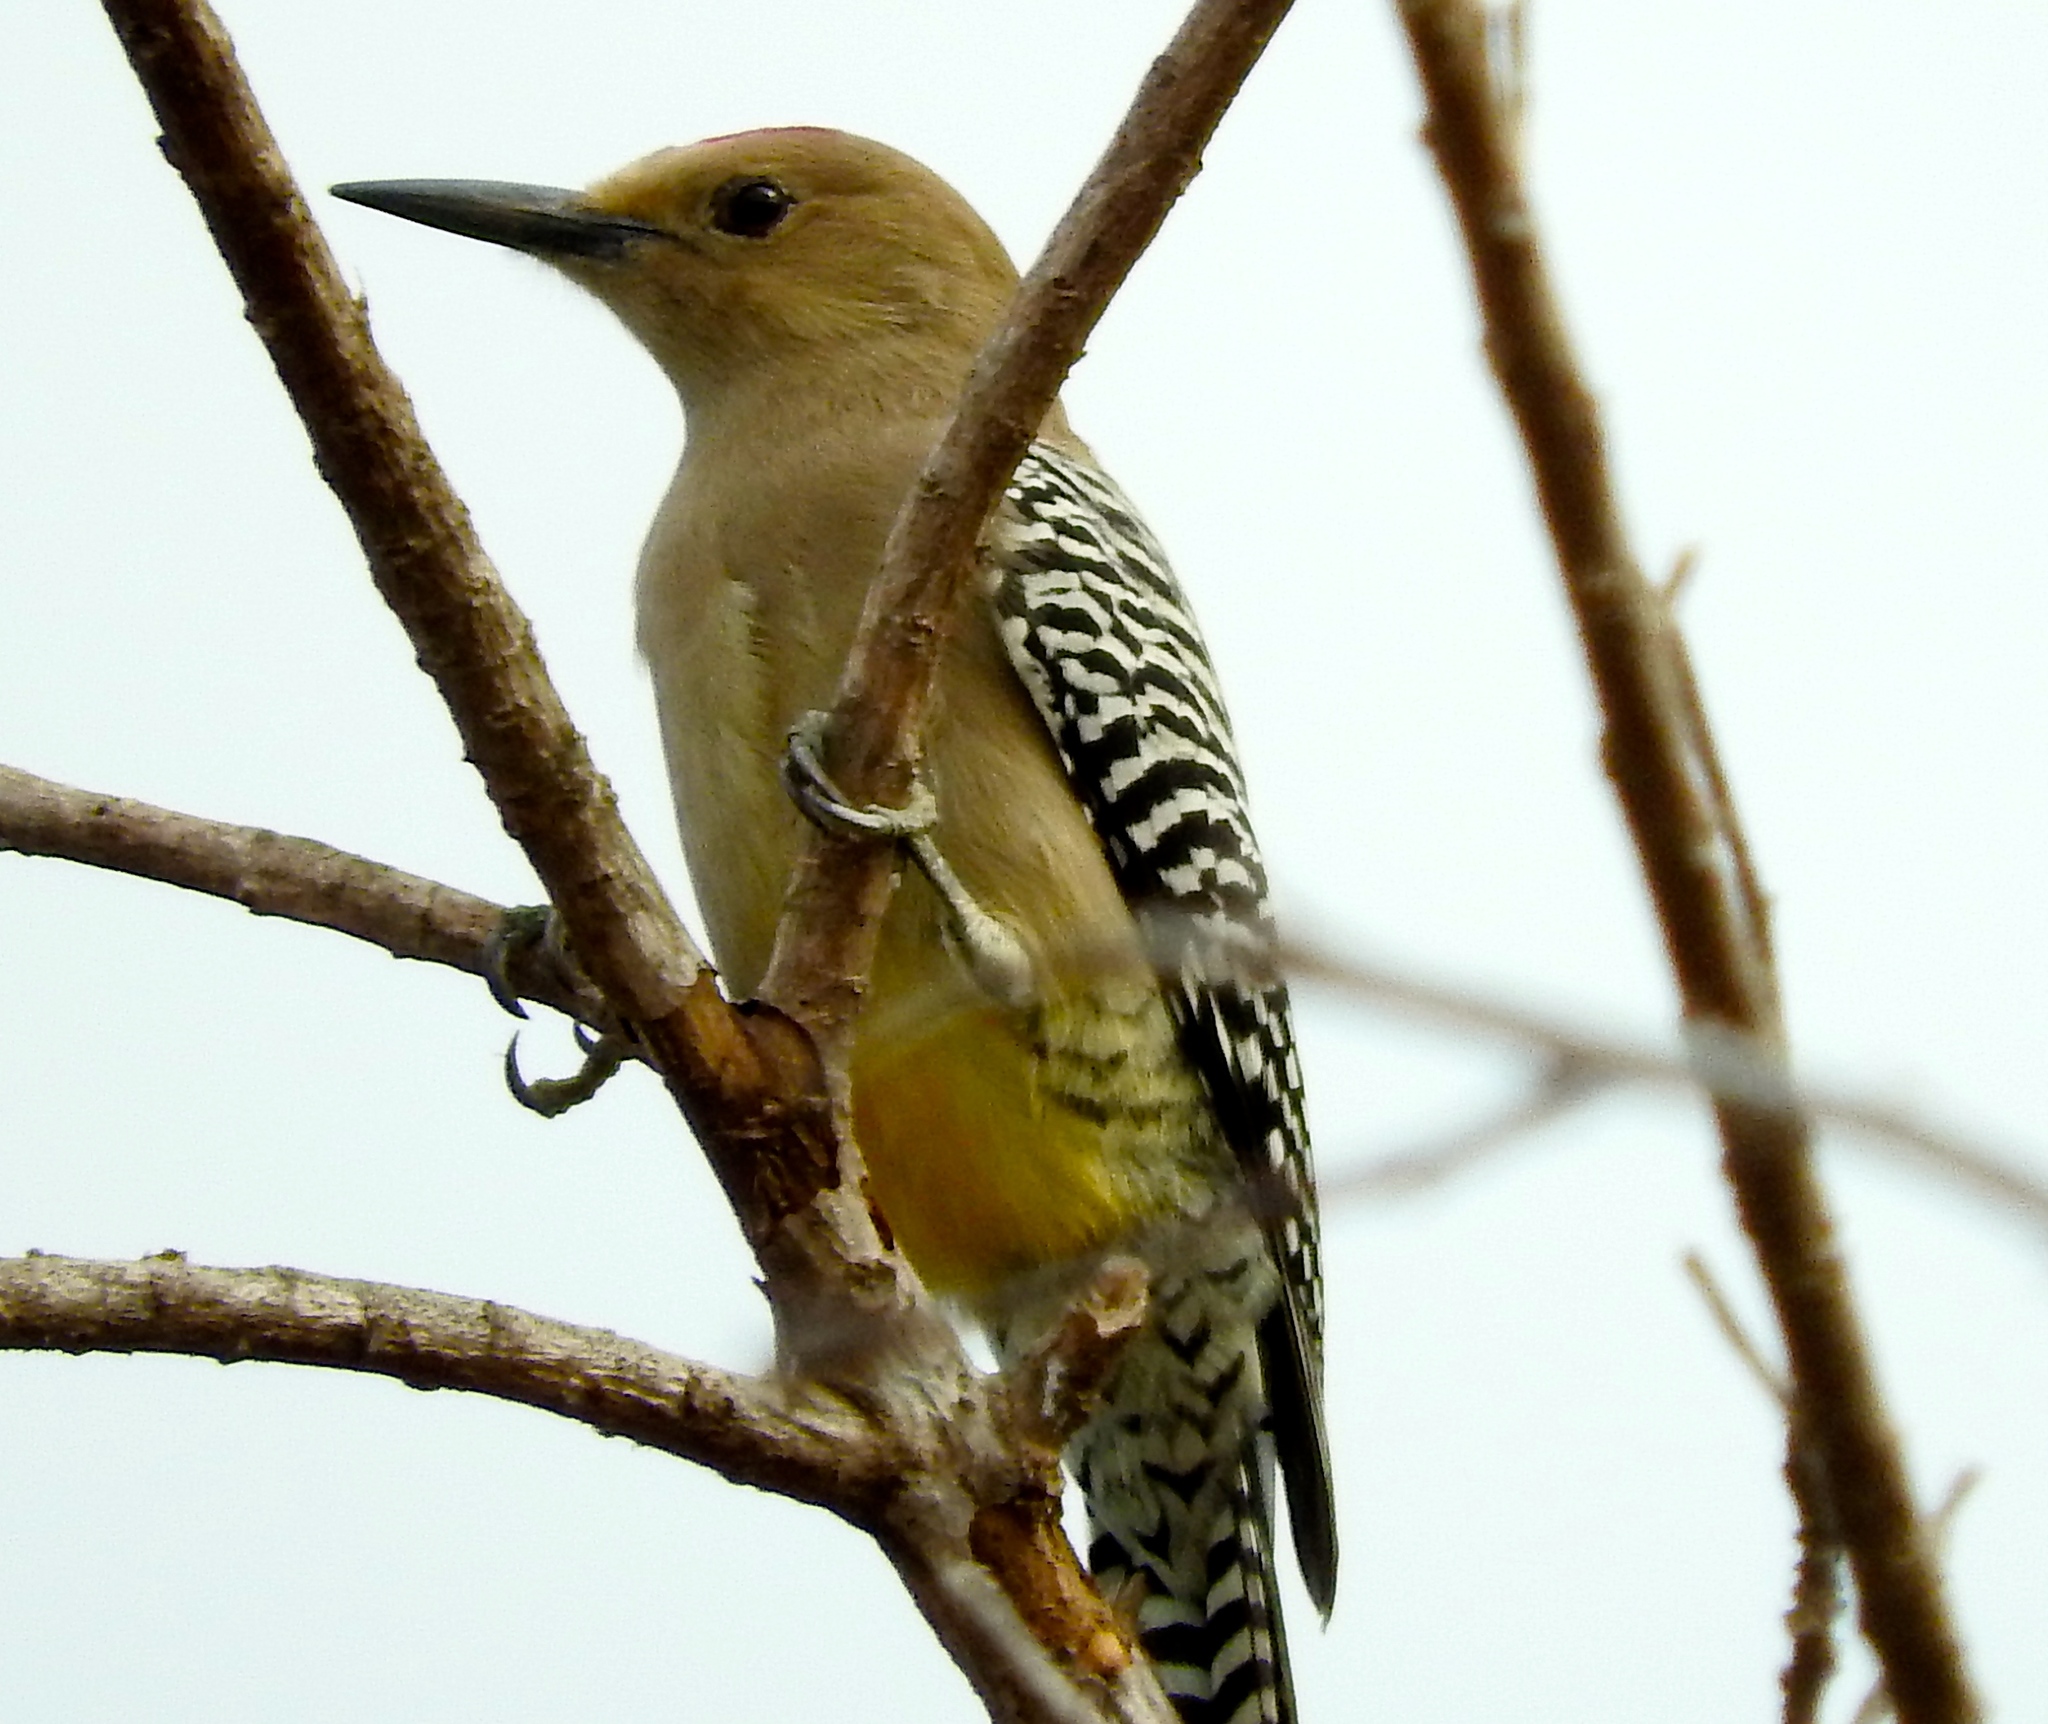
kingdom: Animalia
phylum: Chordata
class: Aves
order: Piciformes
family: Picidae
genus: Melanerpes
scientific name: Melanerpes uropygialis
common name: Gila woodpecker
